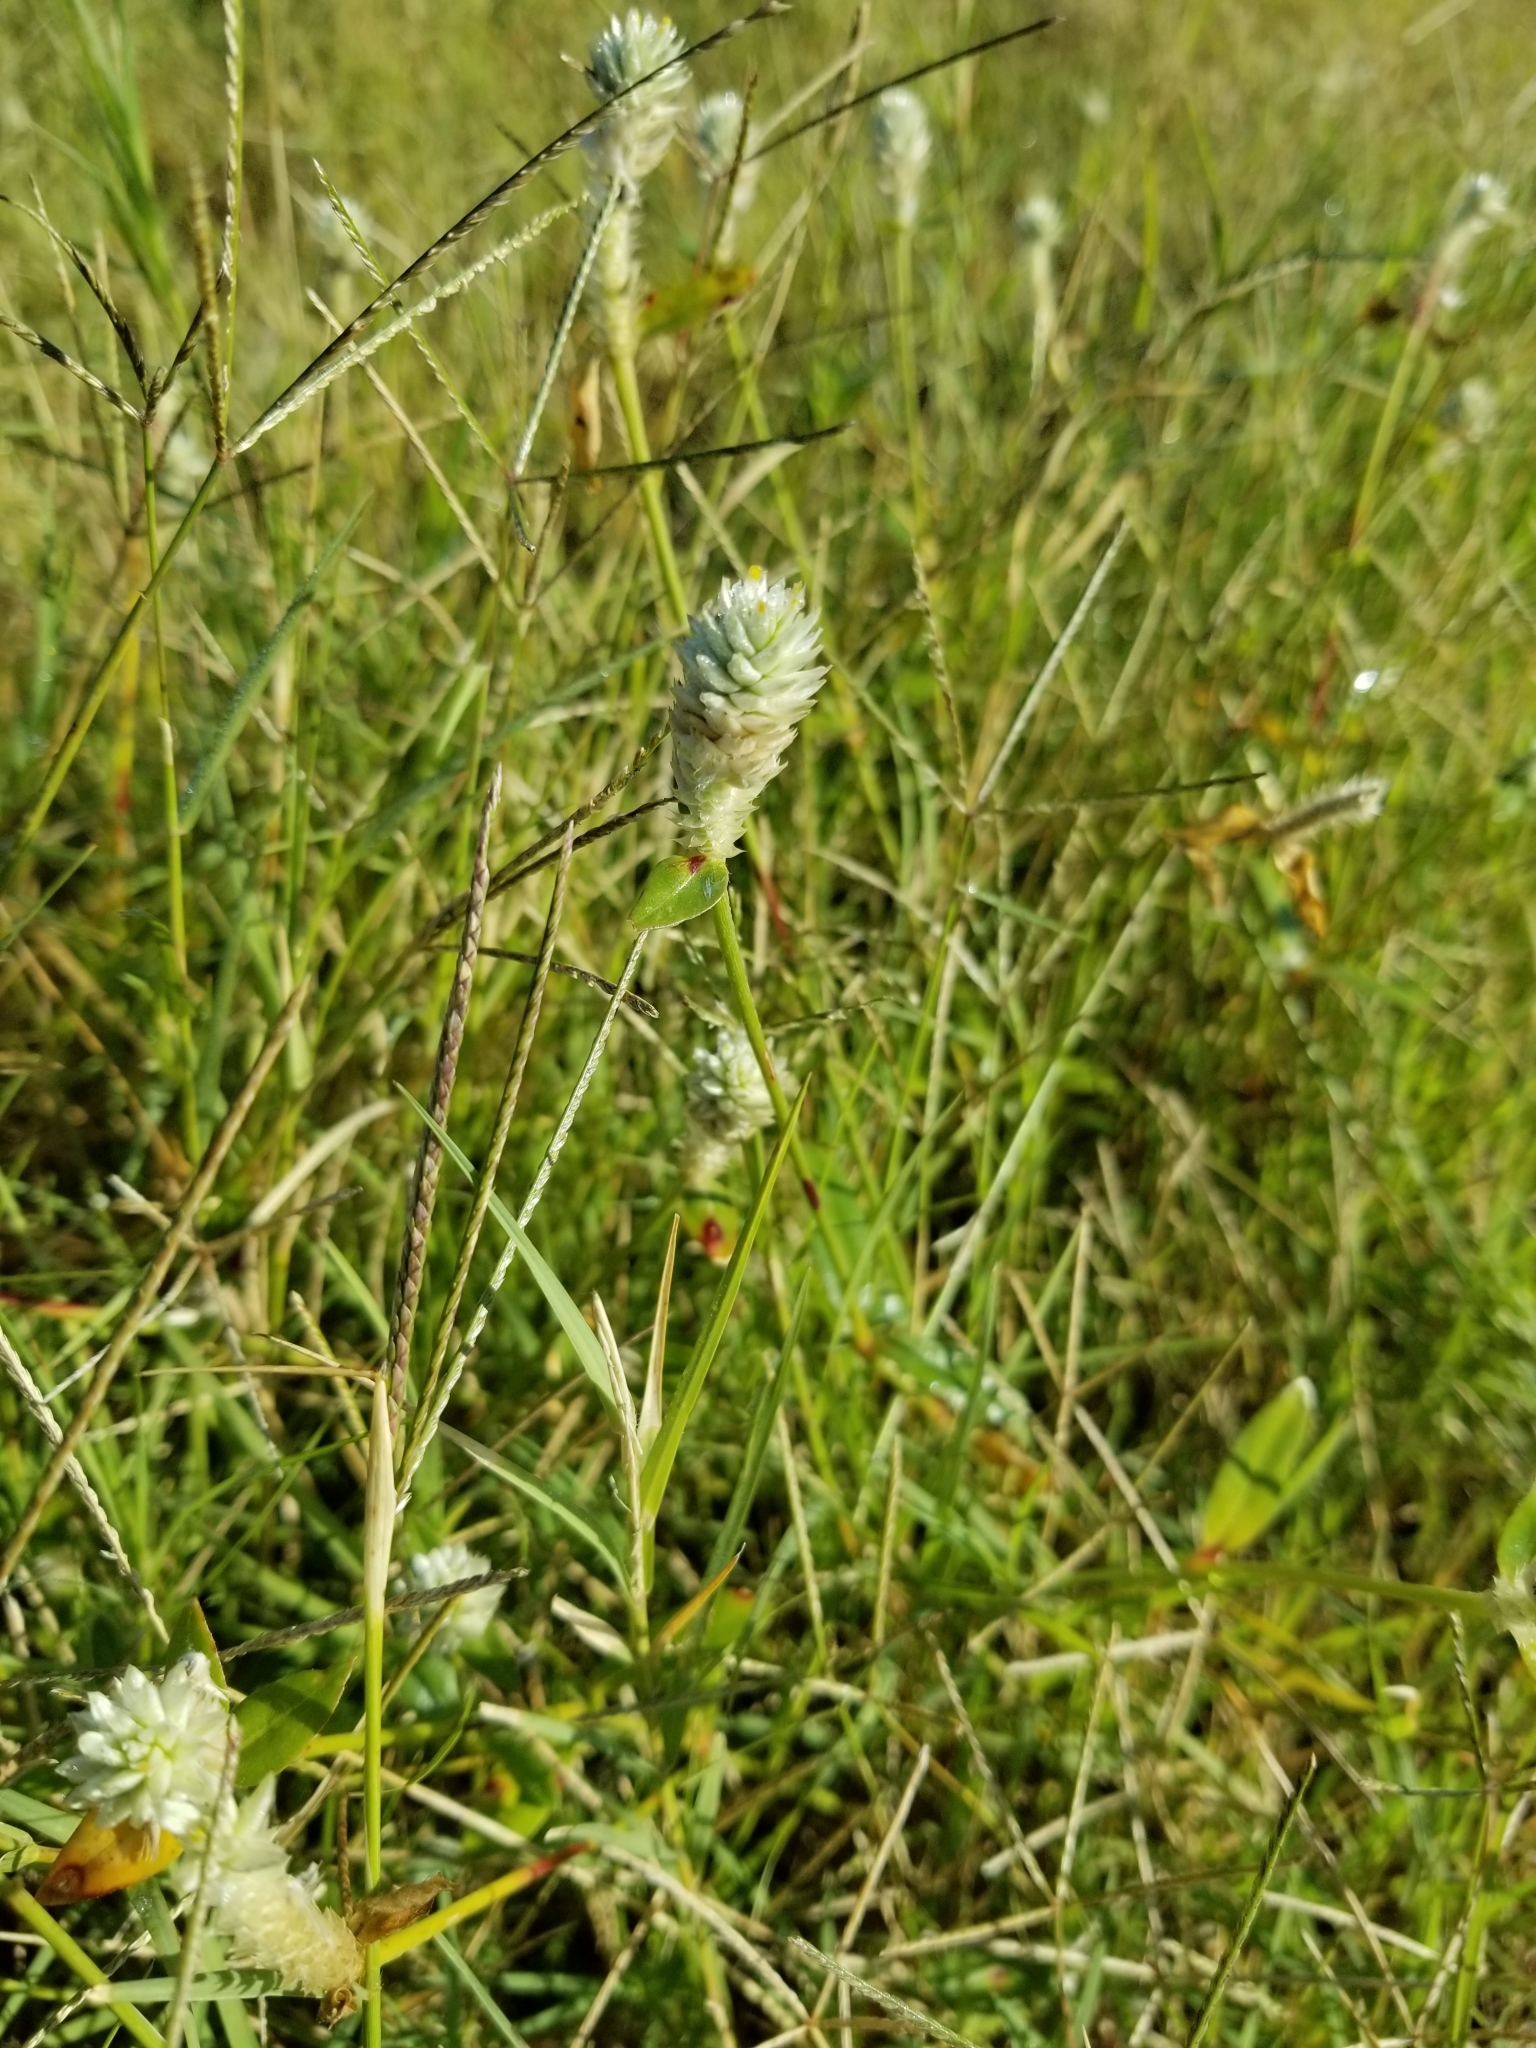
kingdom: Plantae
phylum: Tracheophyta
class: Magnoliopsida
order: Caryophyllales
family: Amaranthaceae
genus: Gomphrena
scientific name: Gomphrena serrata
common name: Arrasa con todo
